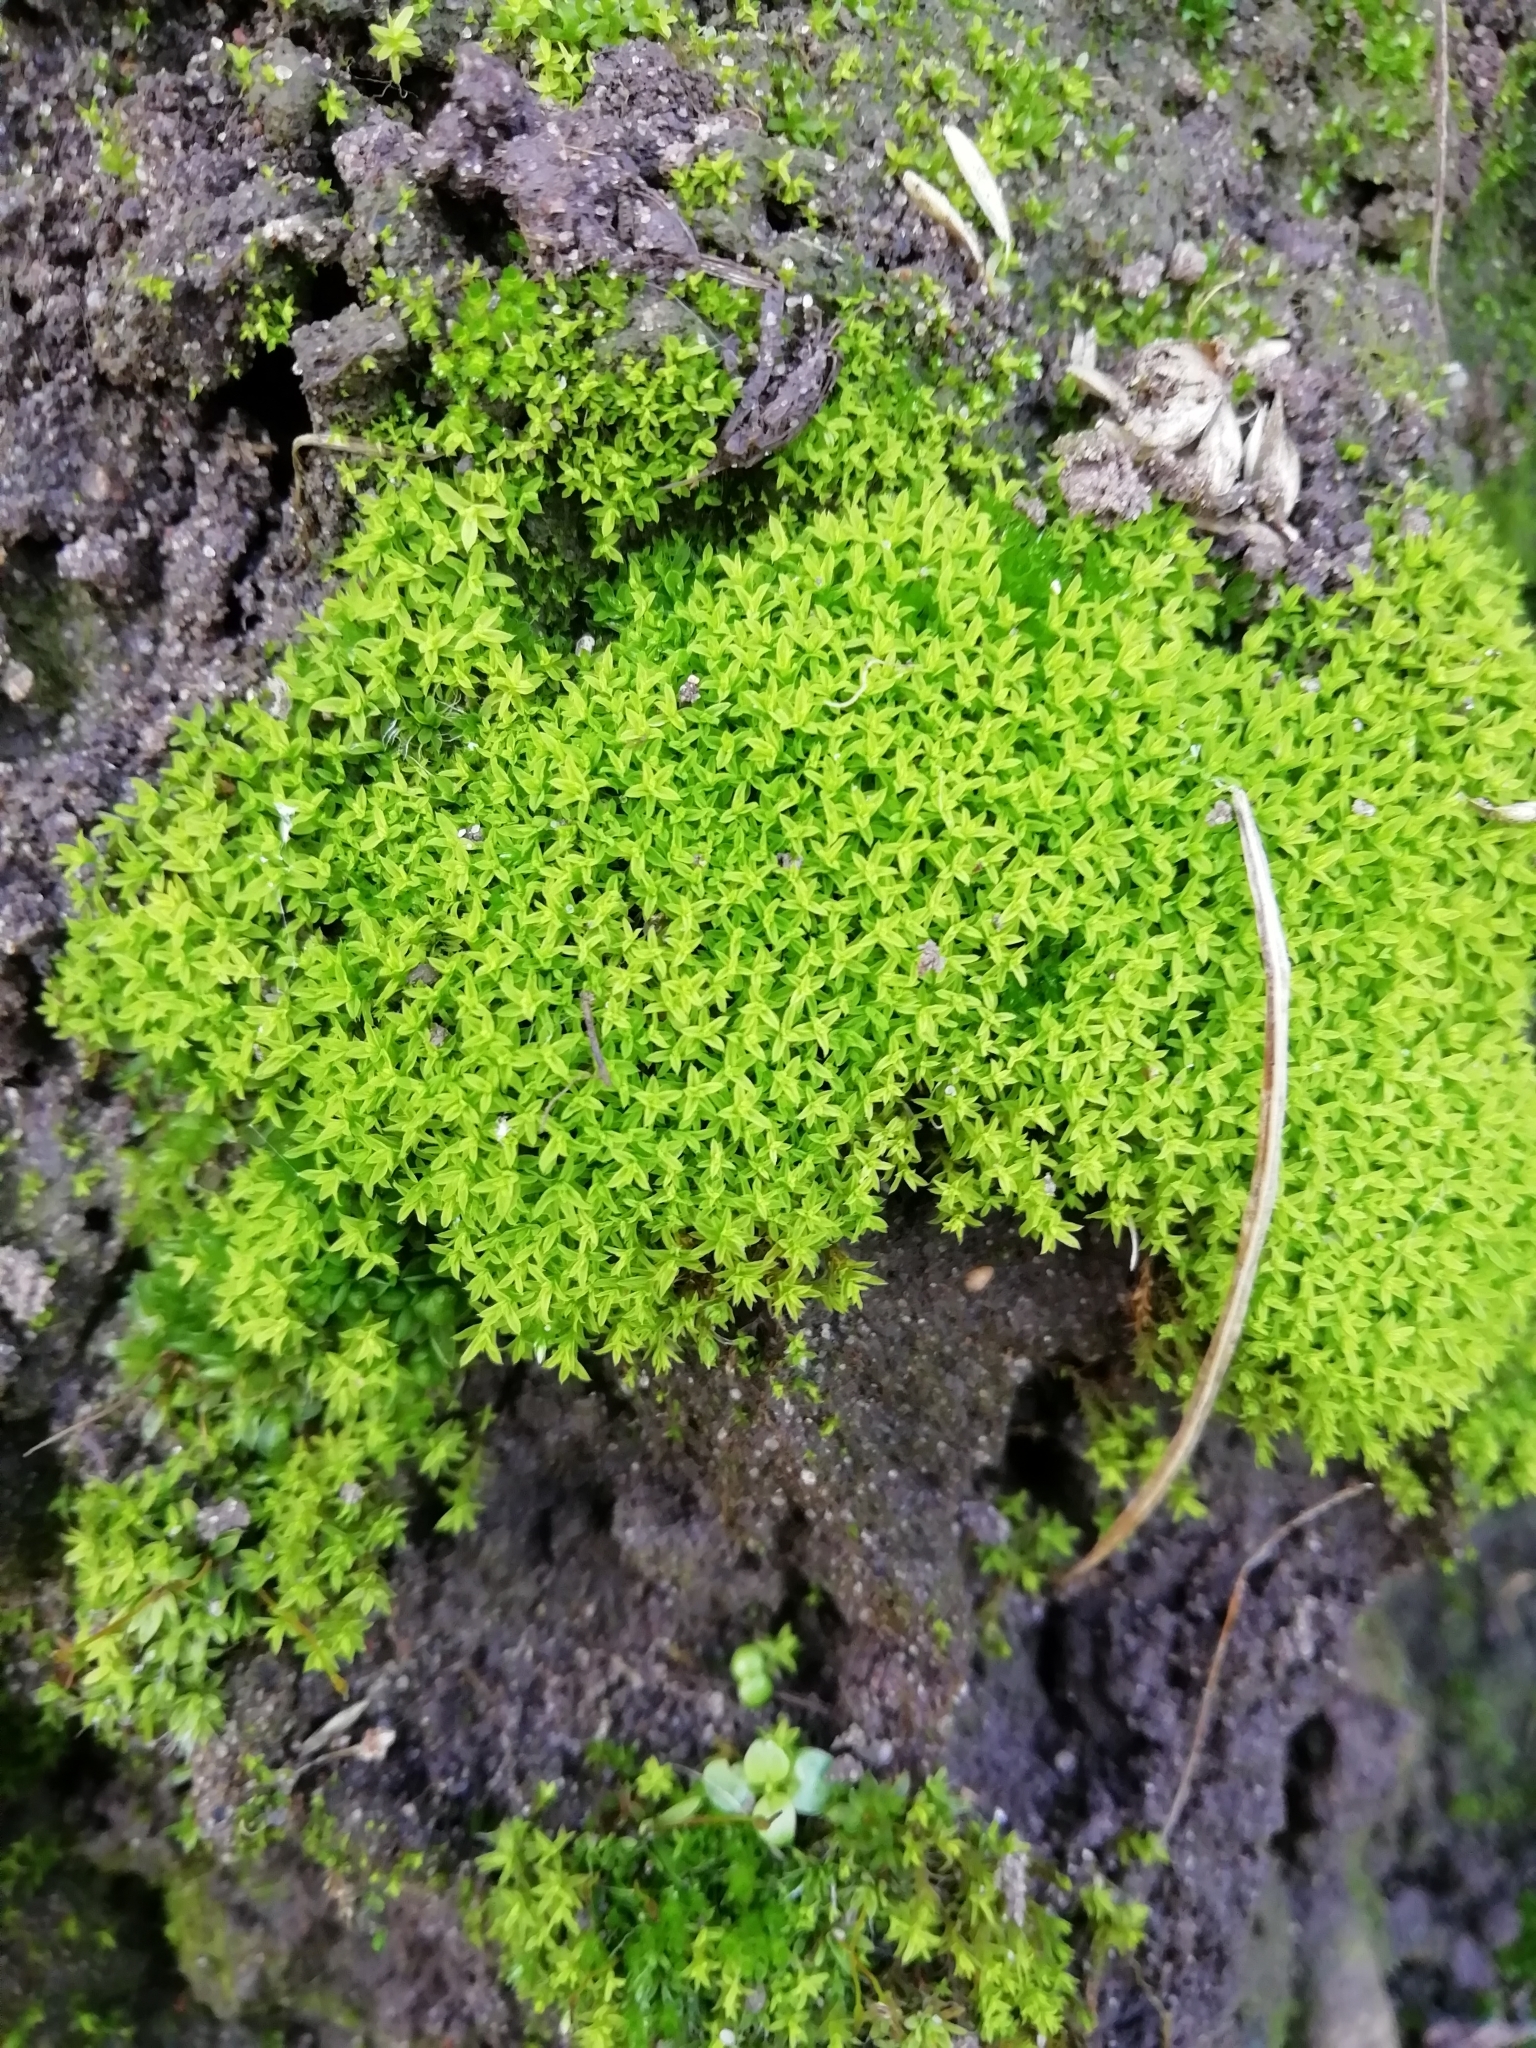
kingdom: Plantae
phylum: Bryophyta
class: Bryopsida
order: Pottiales
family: Pottiaceae
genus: Barbula
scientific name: Barbula unguiculata
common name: Prickly beard moss
